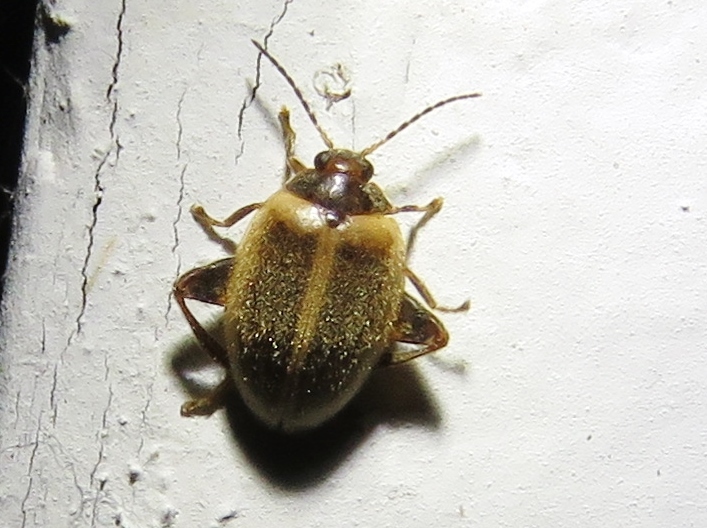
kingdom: Animalia
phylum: Arthropoda
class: Insecta
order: Coleoptera
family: Scirtidae
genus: Ora
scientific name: Ora discoidea
